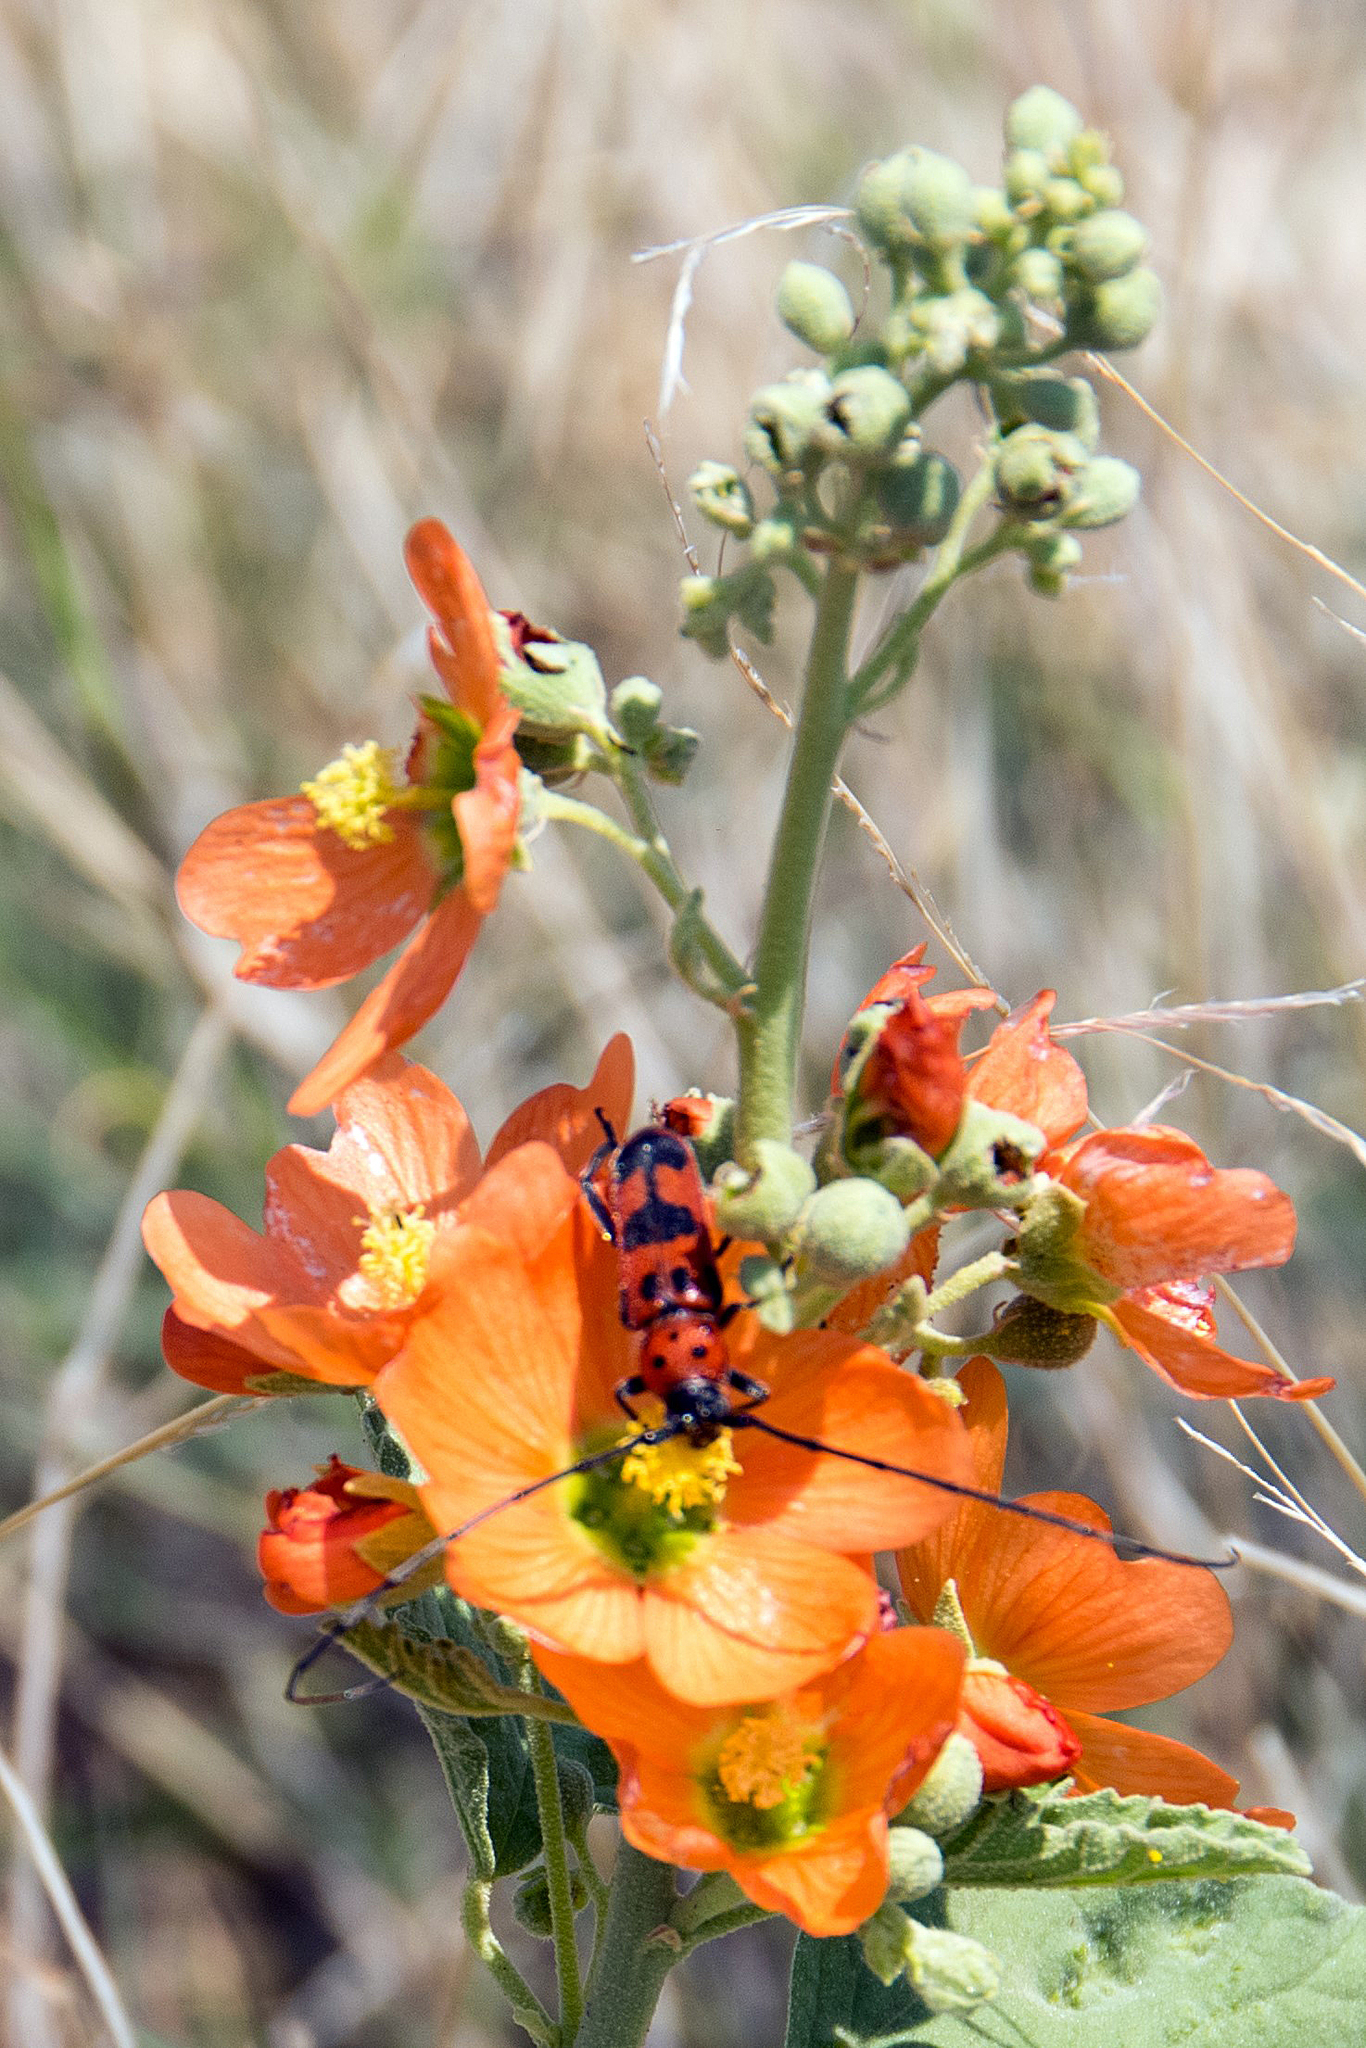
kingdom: Animalia
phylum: Arthropoda
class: Insecta
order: Coleoptera
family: Cerambycidae
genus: Tylosis
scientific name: Tylosis maculatus
